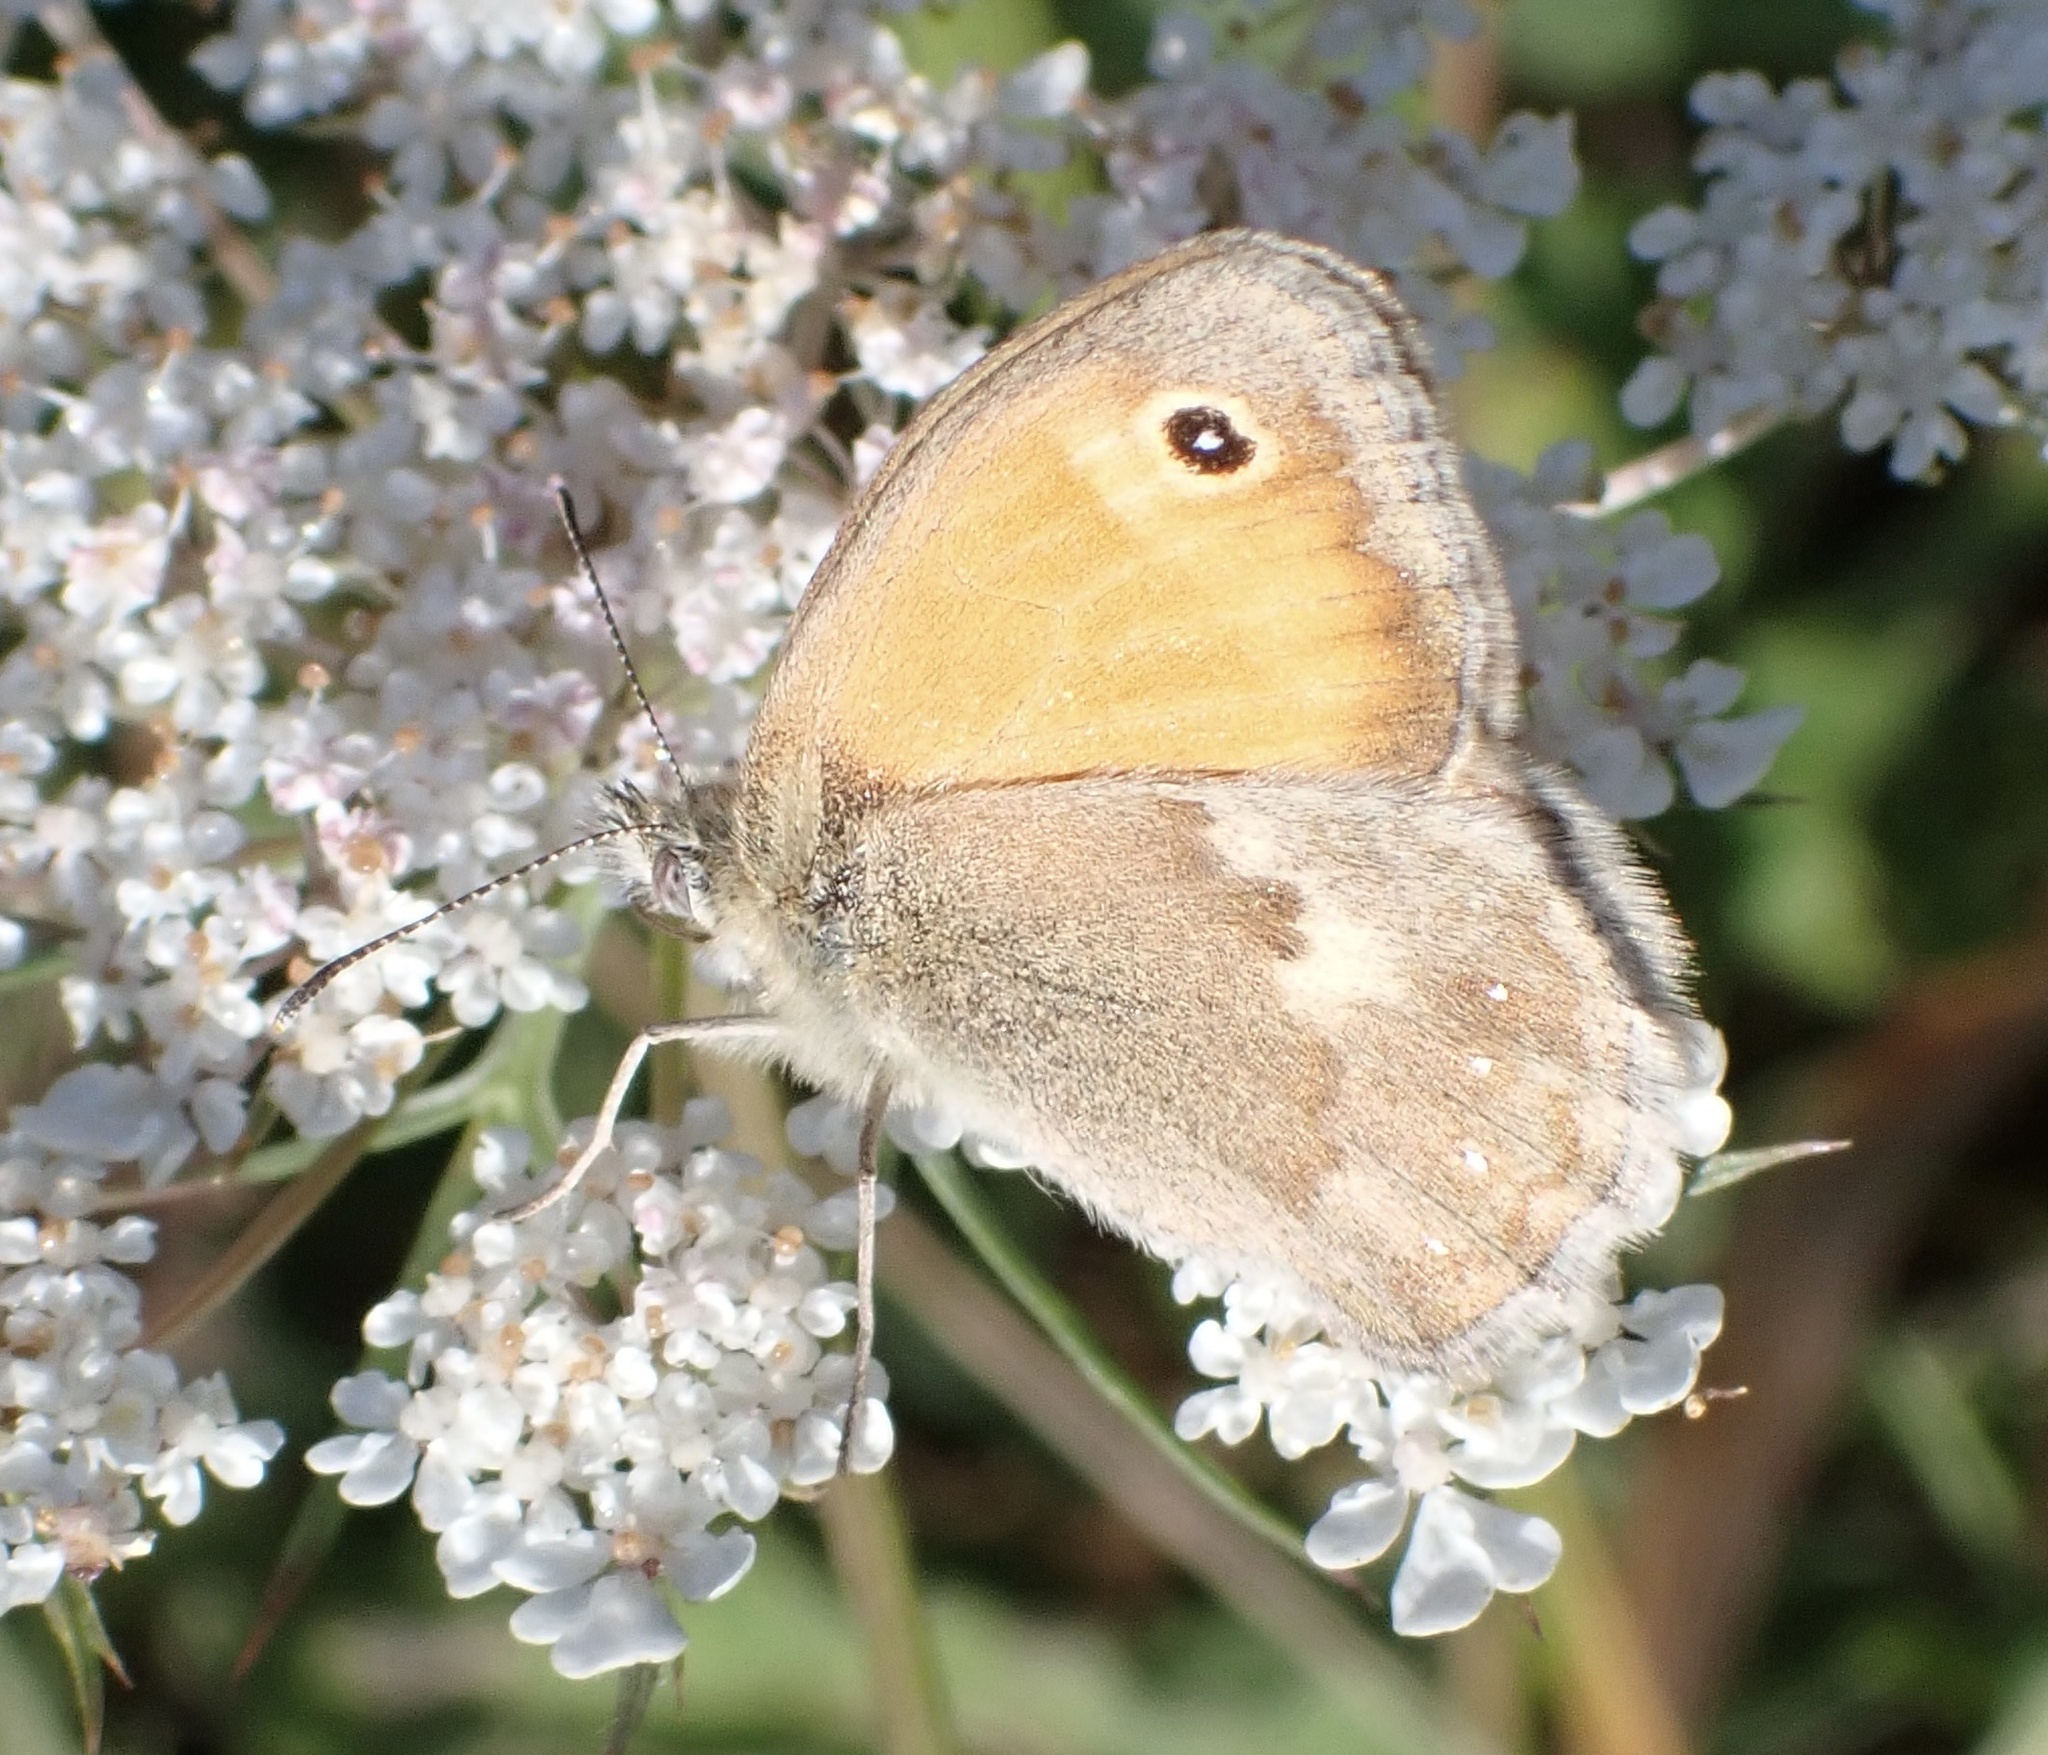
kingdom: Animalia
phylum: Arthropoda
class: Insecta
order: Lepidoptera
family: Nymphalidae
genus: Coenonympha
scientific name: Coenonympha pamphilus
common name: Small heath
